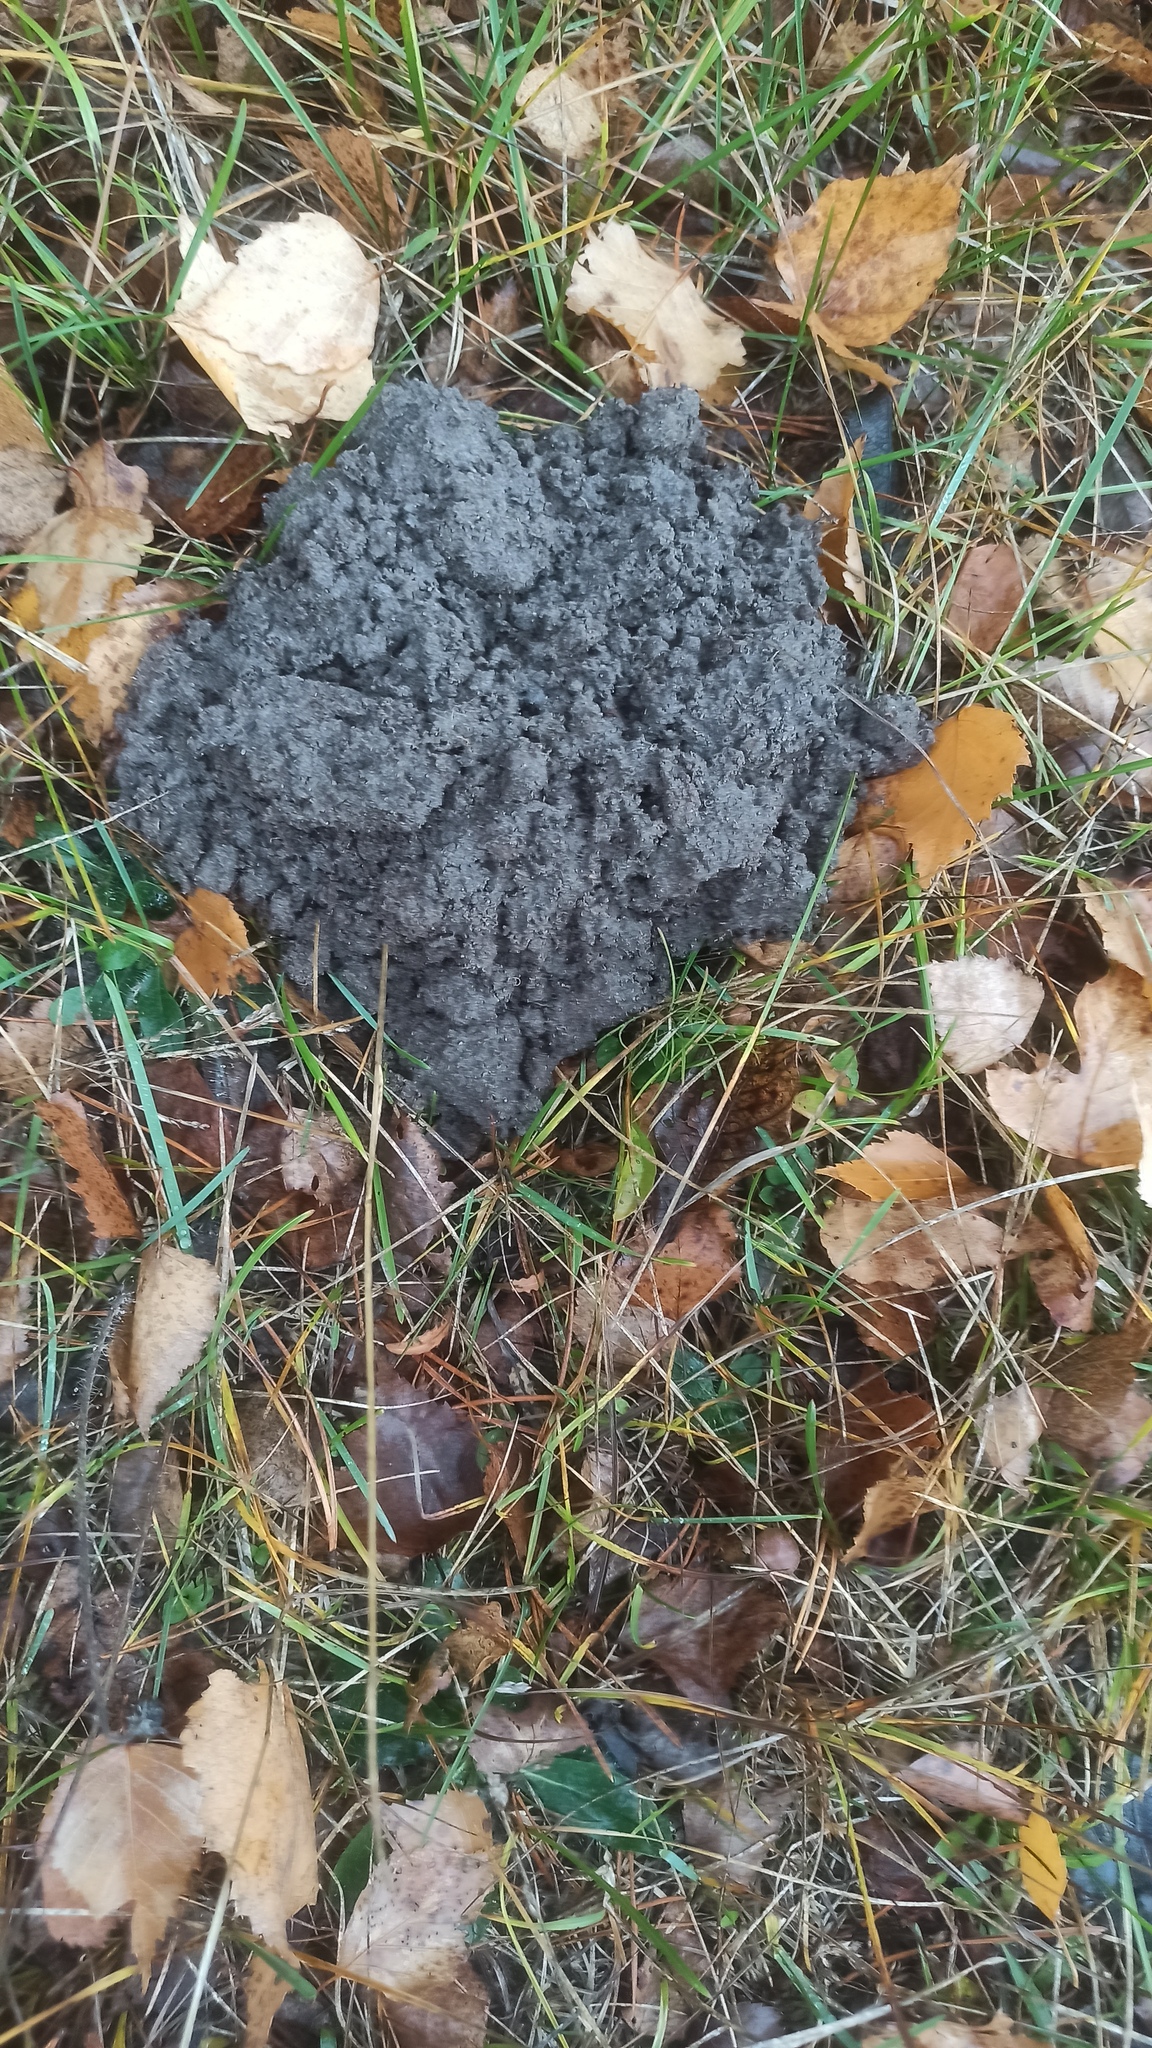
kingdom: Animalia
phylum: Chordata
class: Mammalia
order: Soricomorpha
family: Talpidae
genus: Talpa
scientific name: Talpa europaea
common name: European mole
